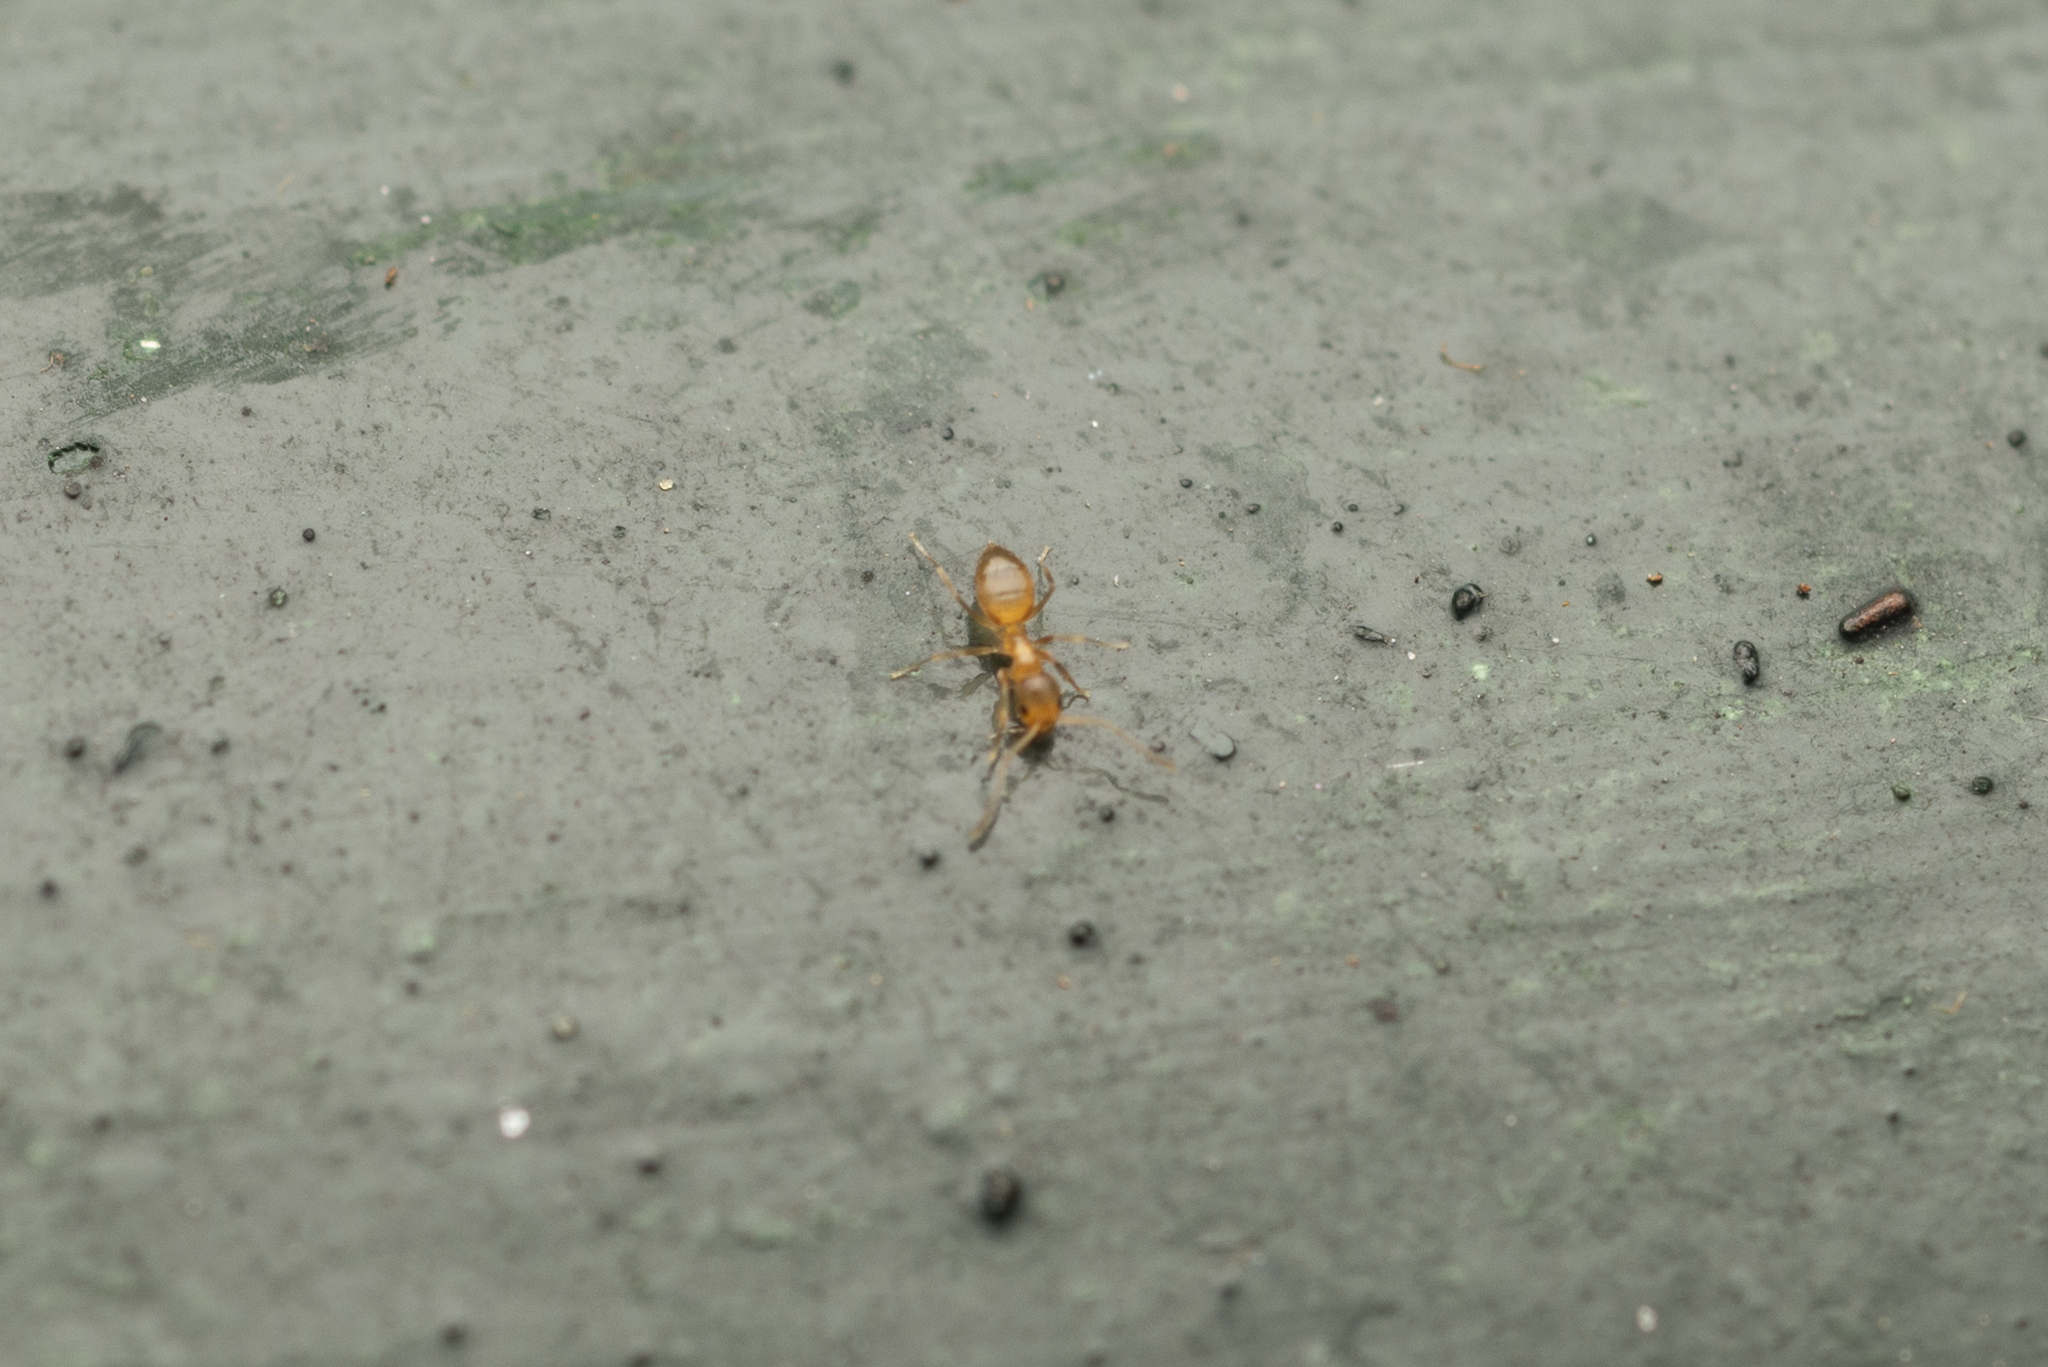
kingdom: Animalia
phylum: Arthropoda
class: Insecta
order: Hymenoptera
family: Formicidae
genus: Paraparatrechina
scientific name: Paraparatrechina sauteri
